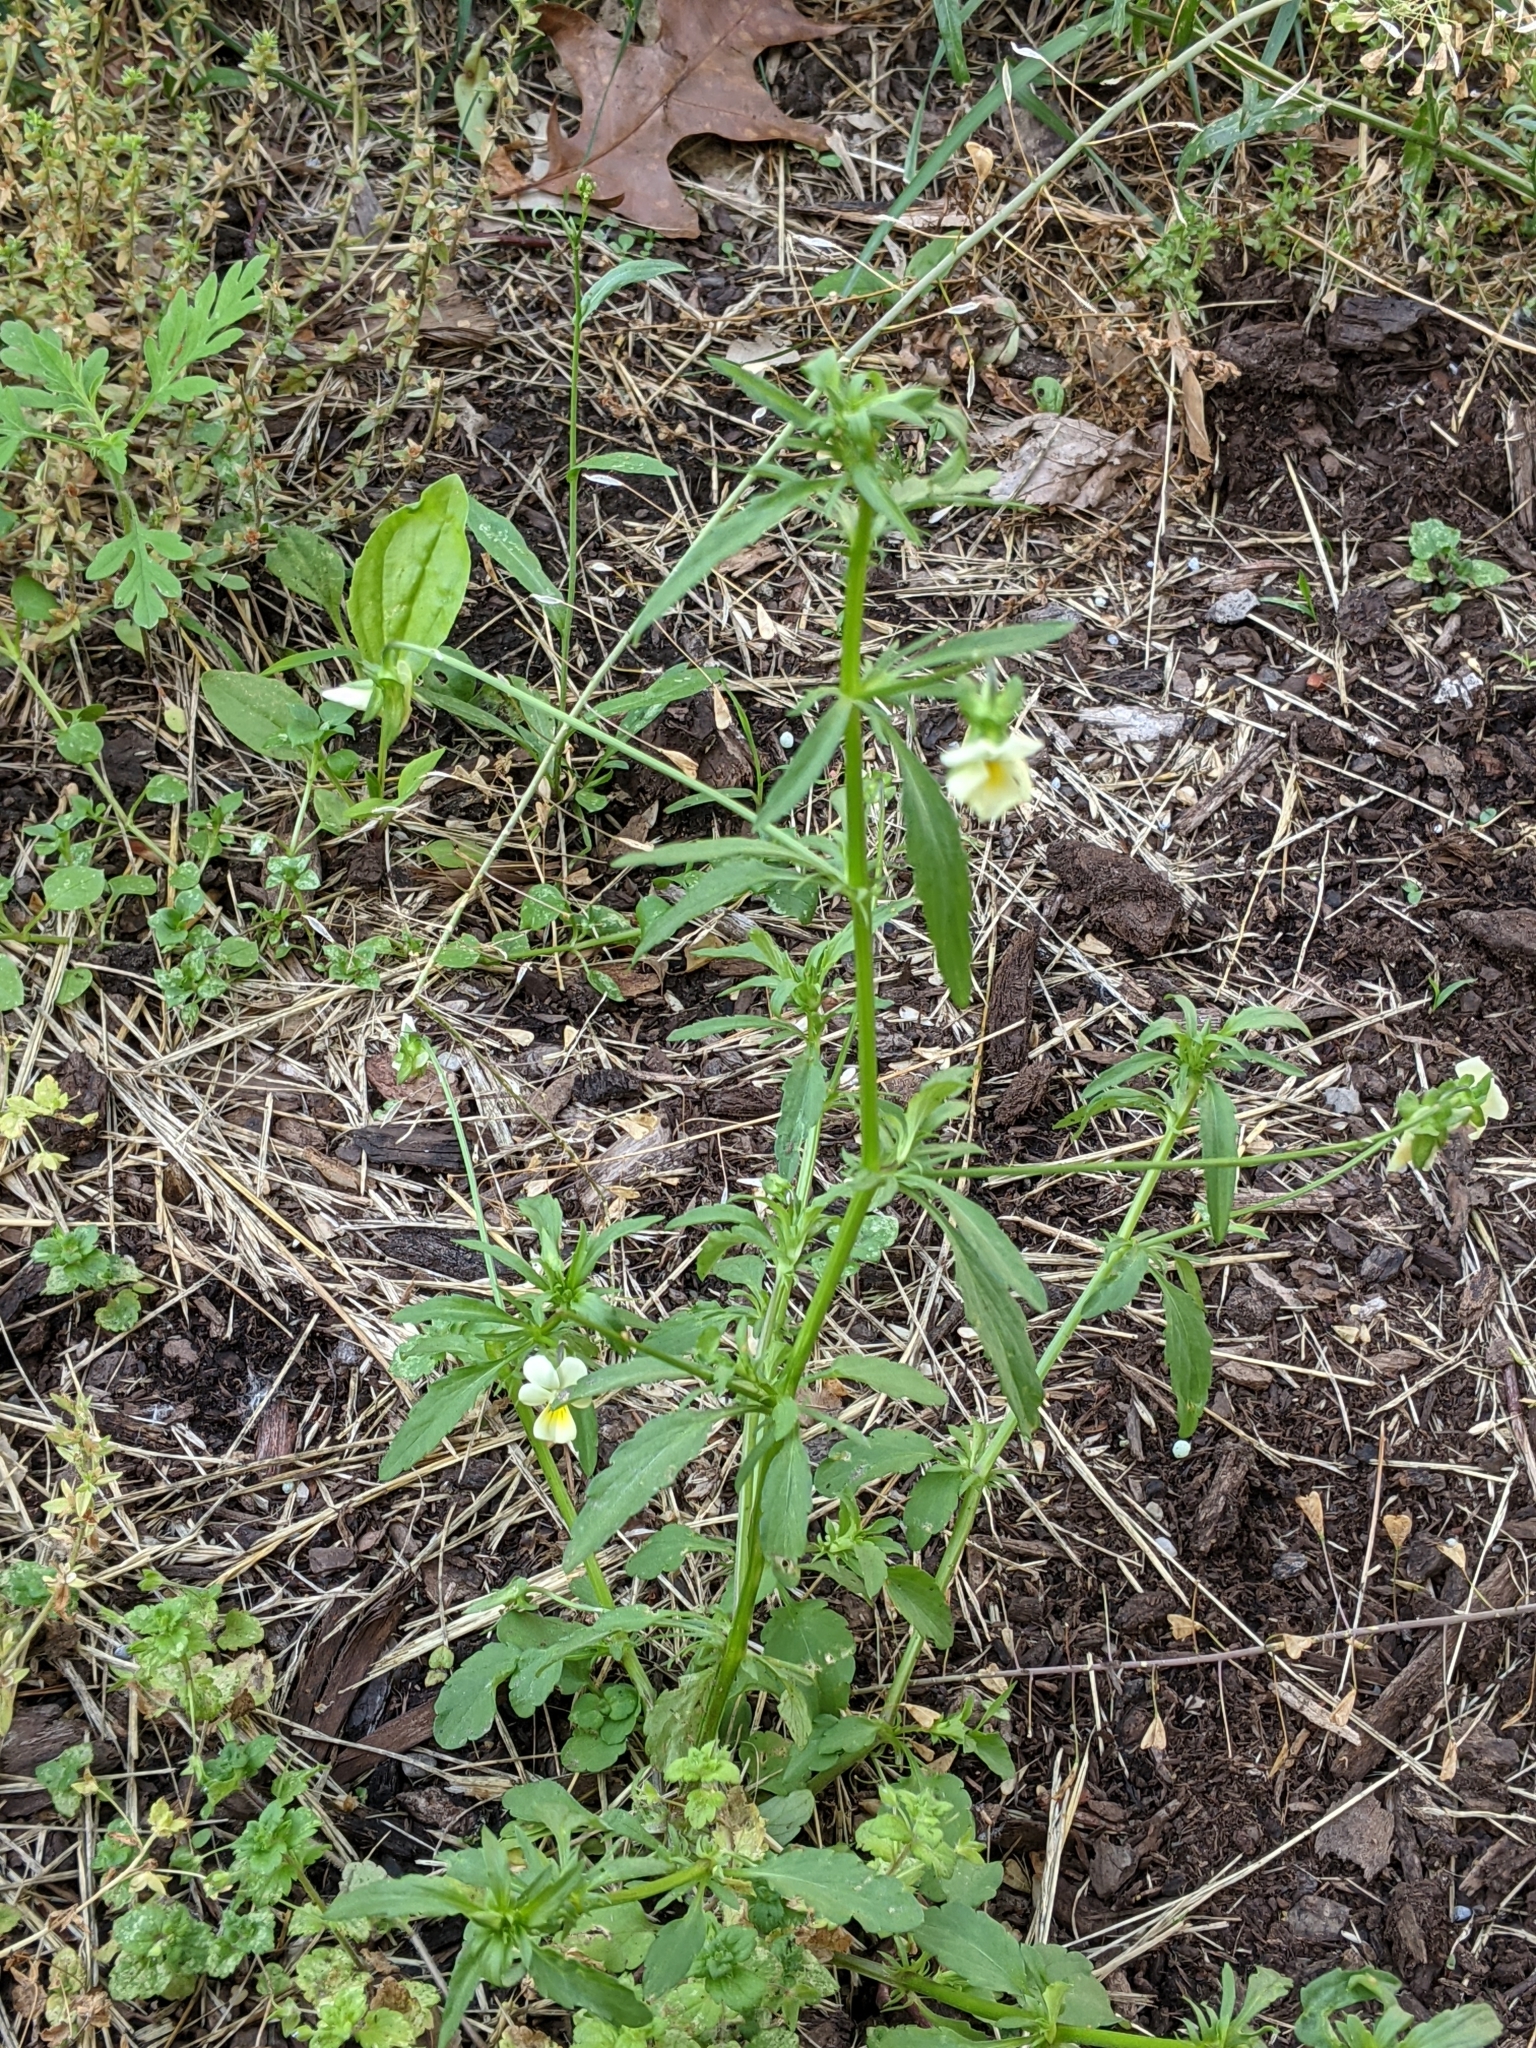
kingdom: Plantae
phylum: Tracheophyta
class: Magnoliopsida
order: Malpighiales
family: Violaceae
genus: Viola
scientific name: Viola arvensis
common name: Field pansy
